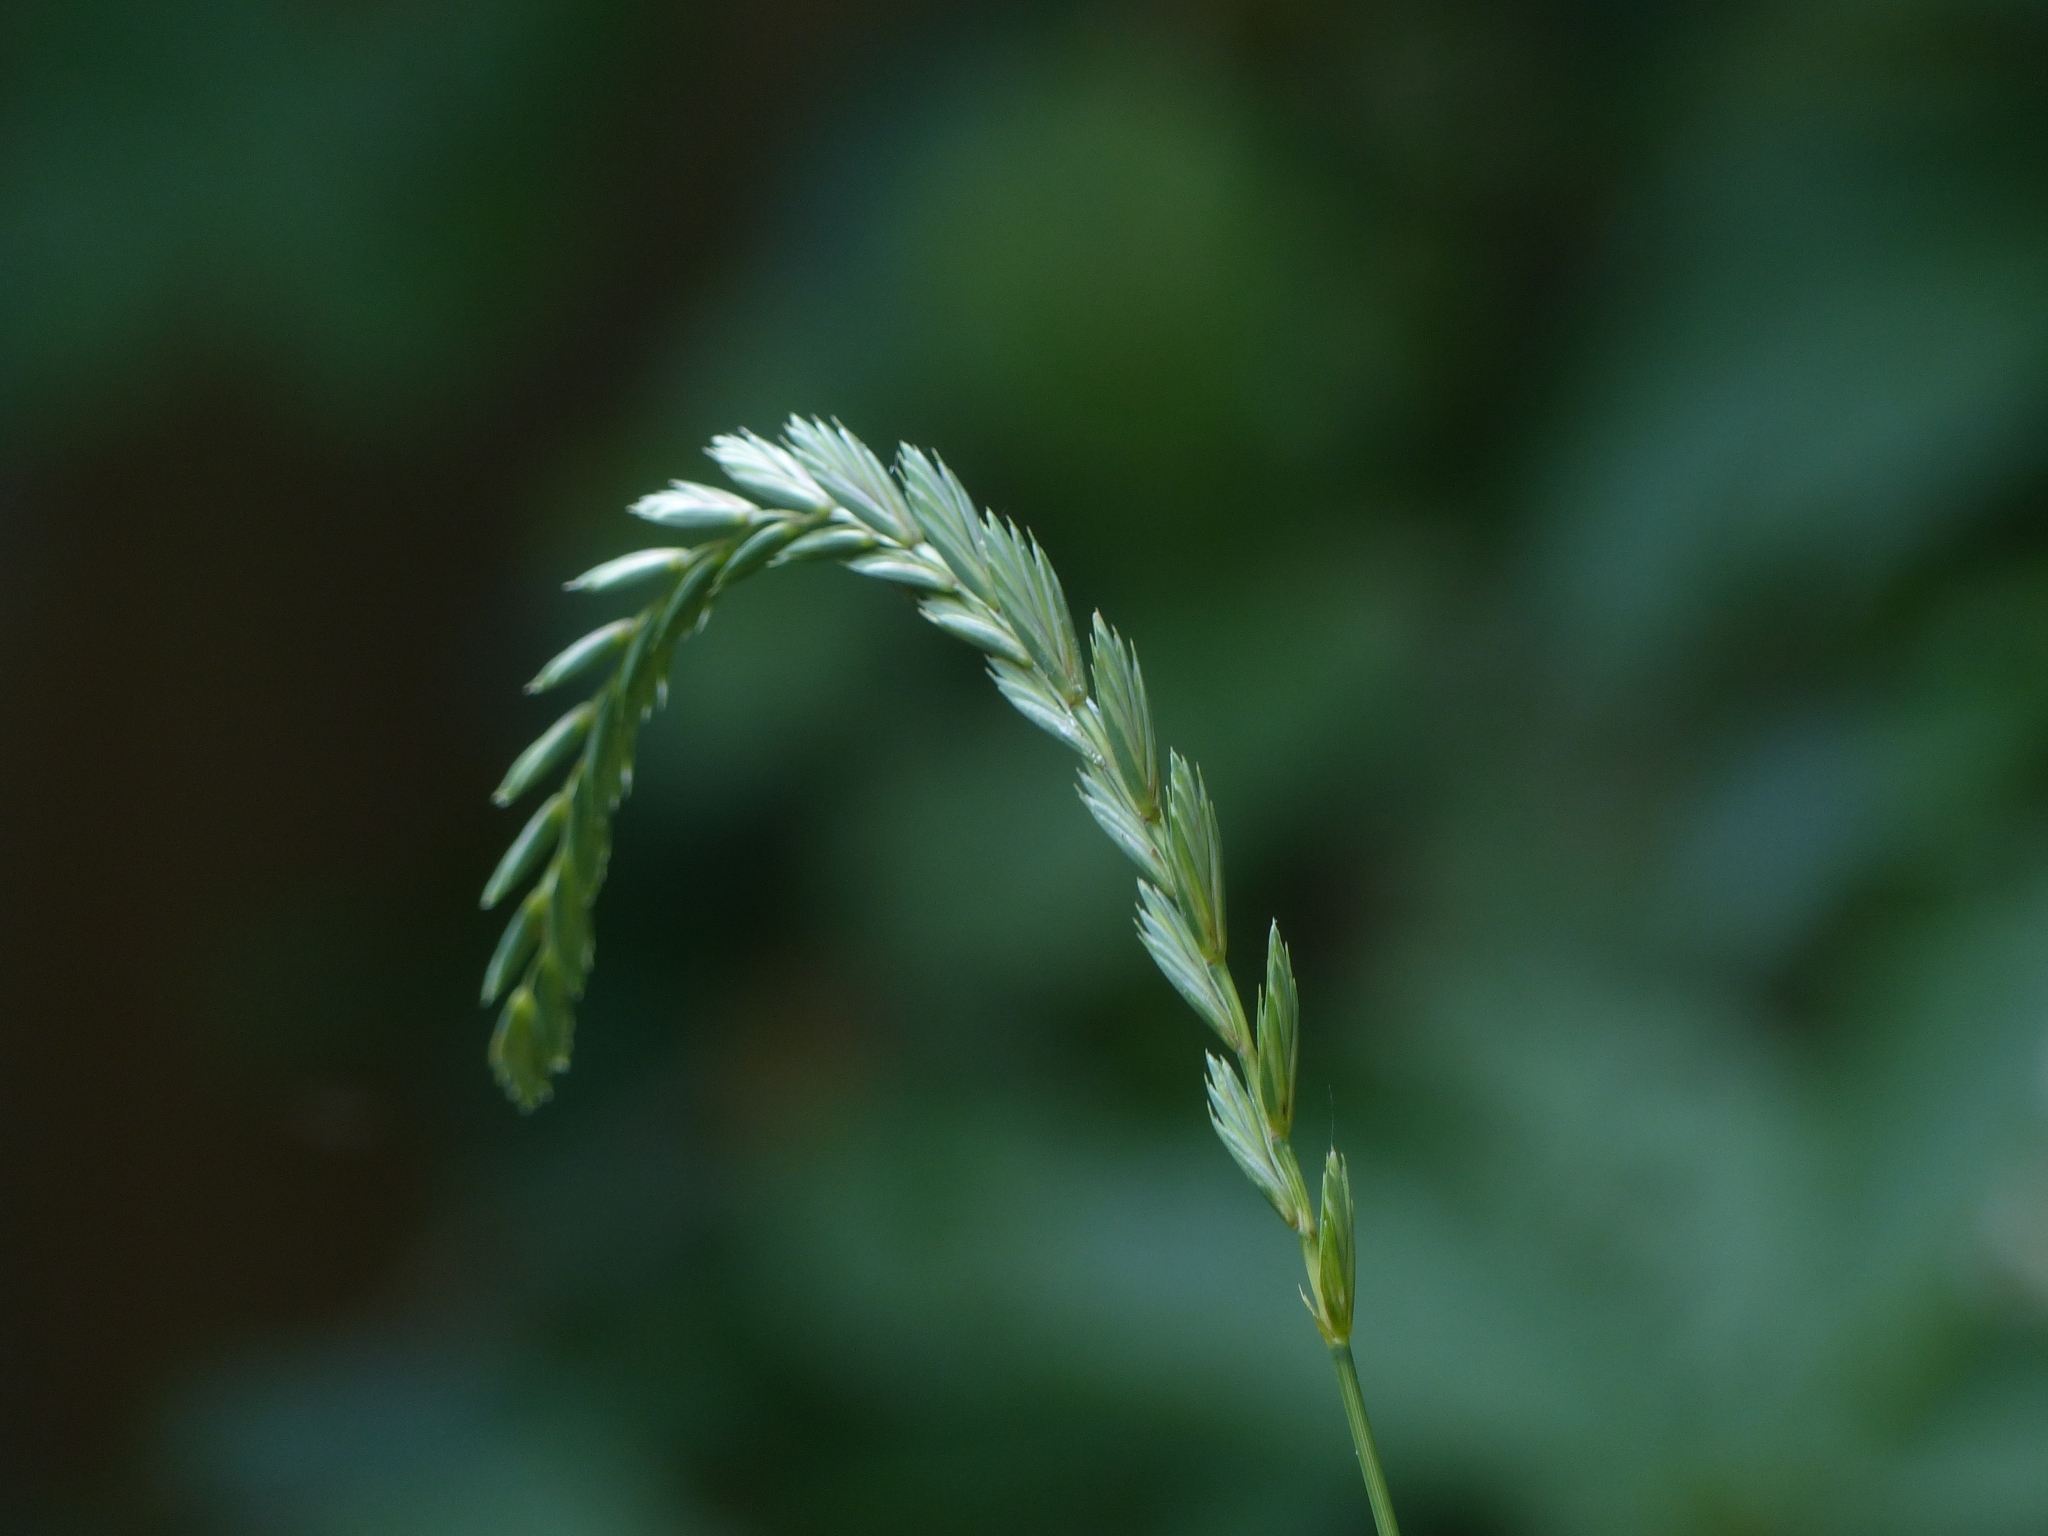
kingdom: Plantae
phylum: Tracheophyta
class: Liliopsida
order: Poales
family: Poaceae
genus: Elymus
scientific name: Elymus repens
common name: Quackgrass
